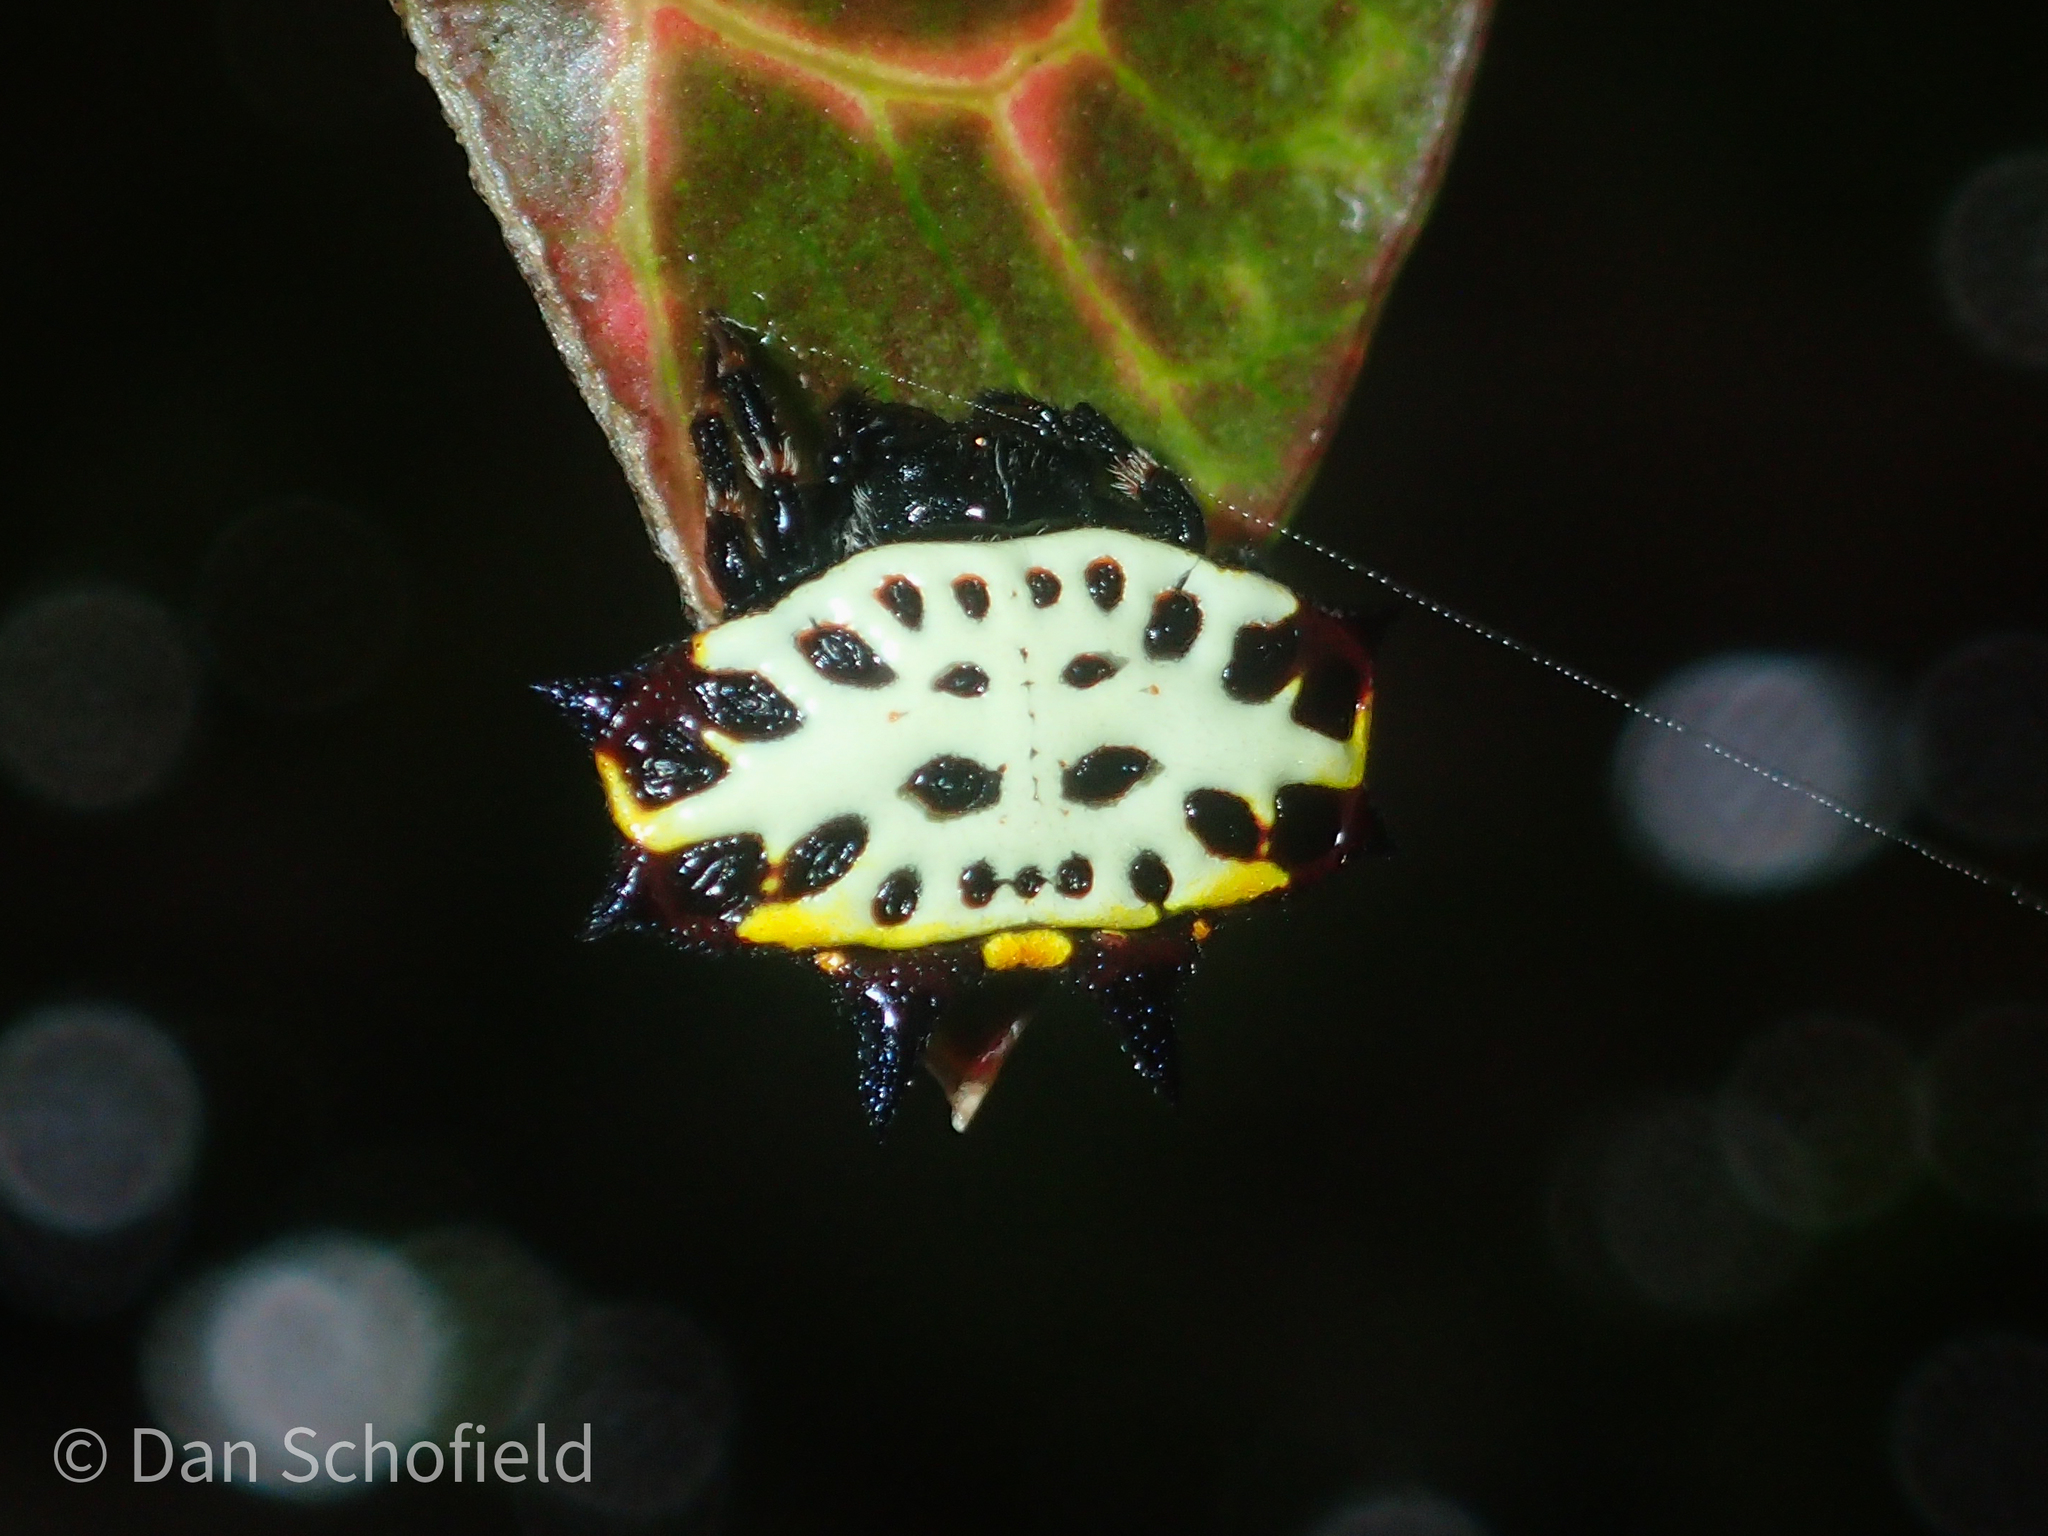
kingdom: Animalia
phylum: Arthropoda
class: Arachnida
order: Araneae
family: Araneidae
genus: Gasteracantha
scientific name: Gasteracantha rubrospinis
